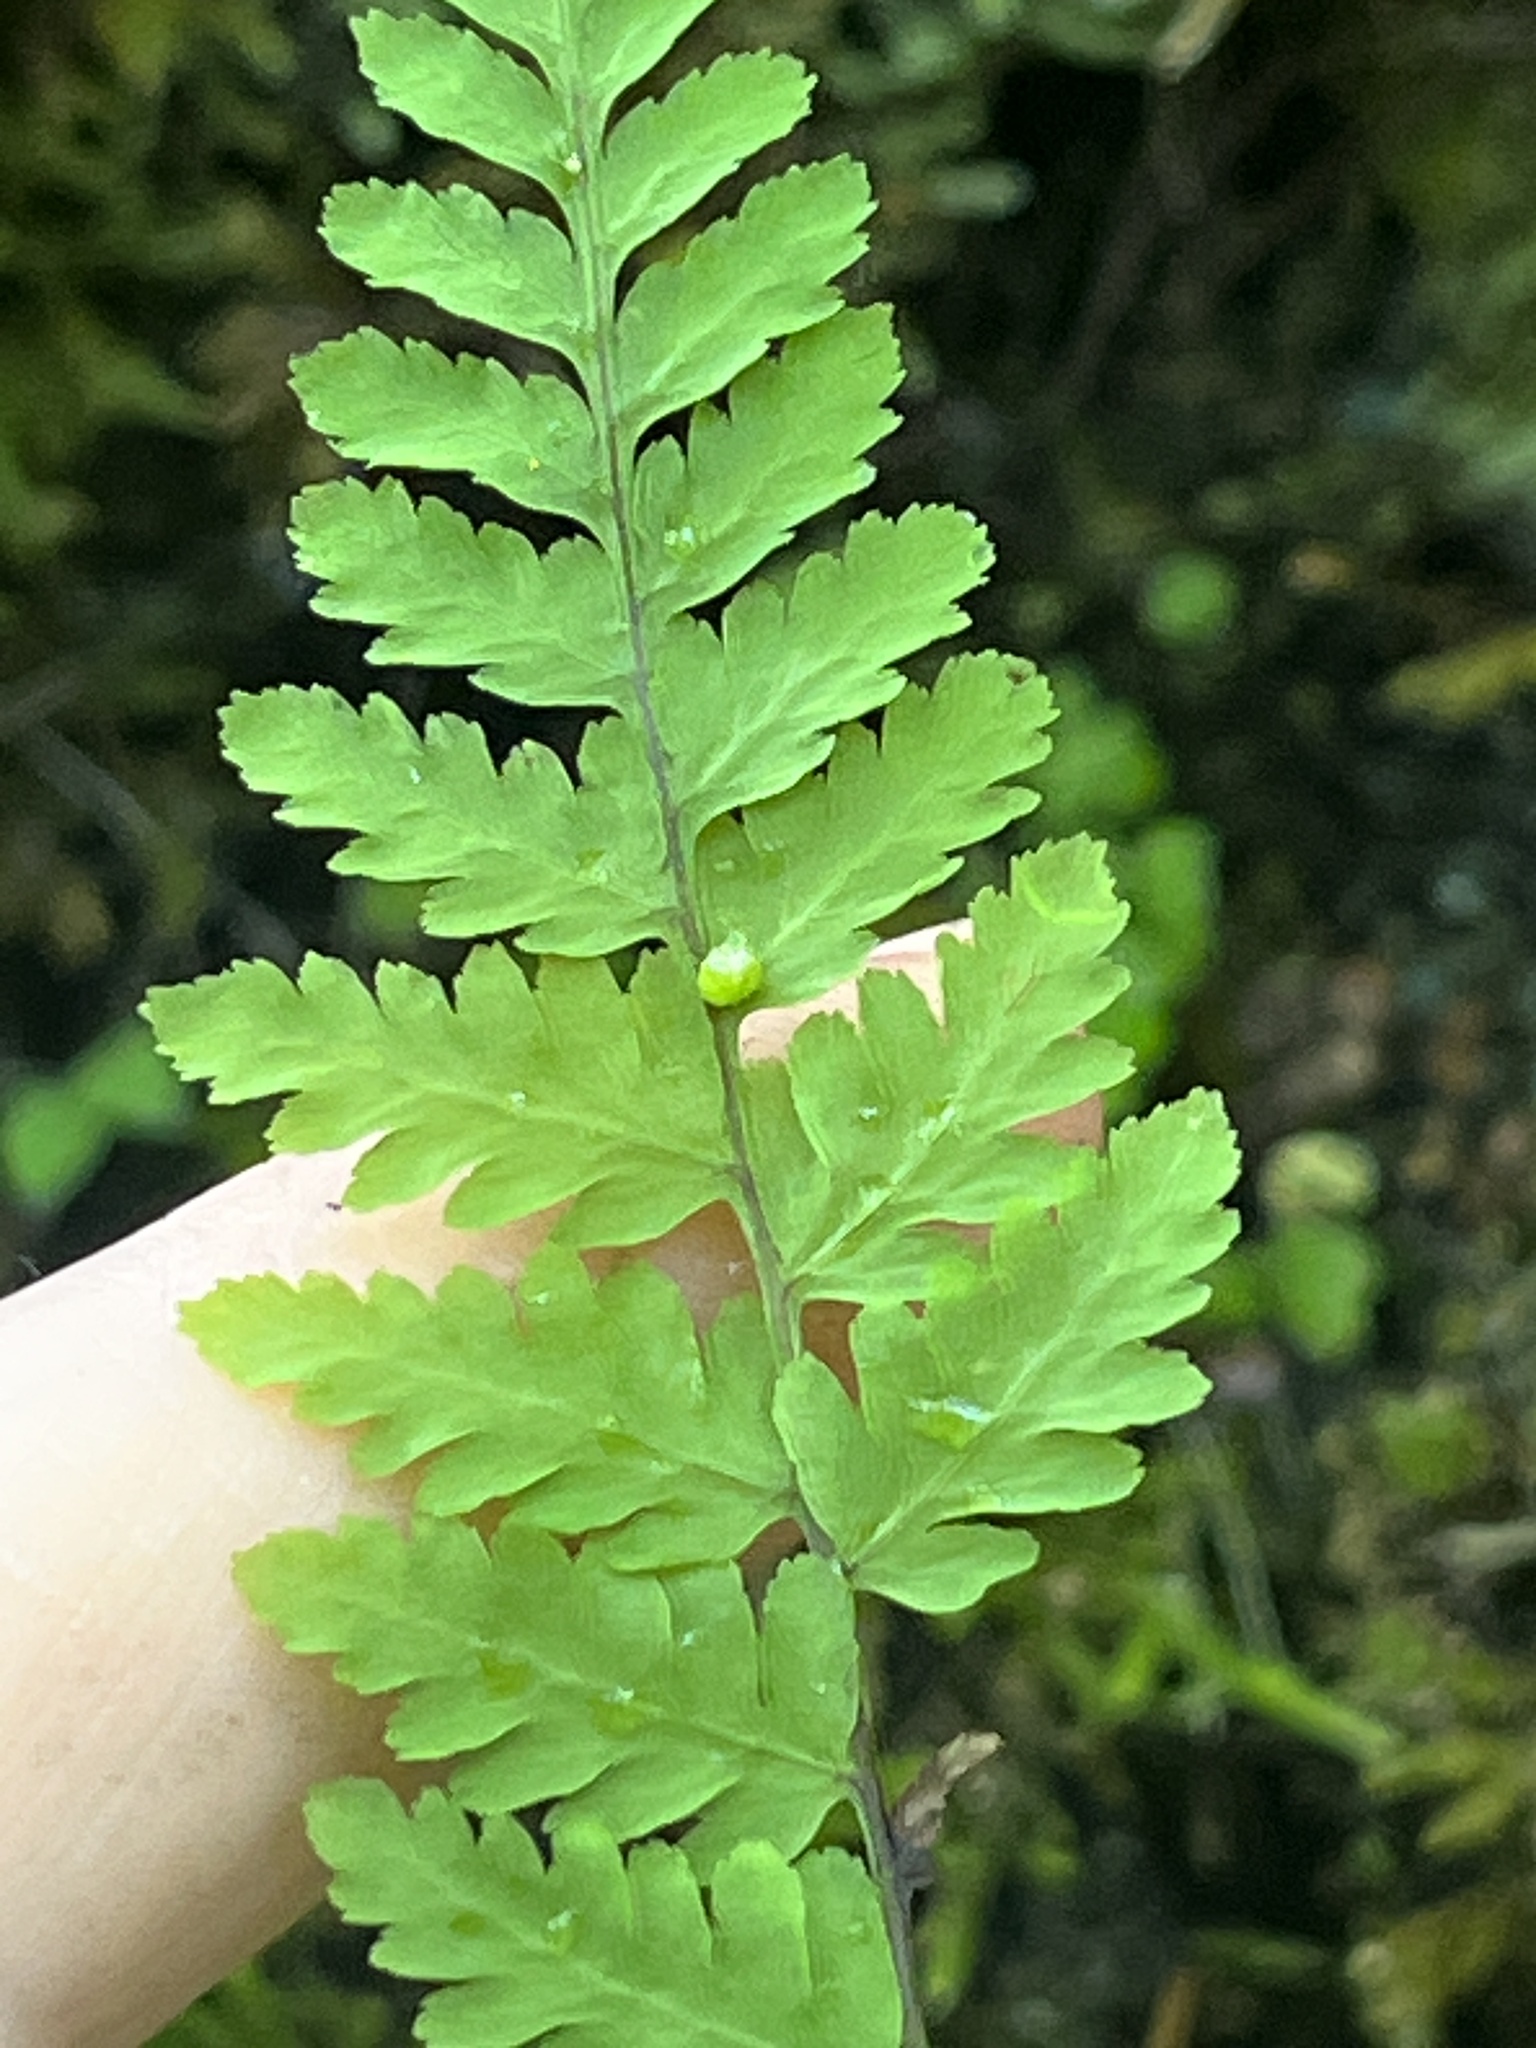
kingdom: Plantae
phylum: Tracheophyta
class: Polypodiopsida
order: Polypodiales
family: Cystopteridaceae
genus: Cystopteris
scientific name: Cystopteris bulbifera
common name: Bulblet bladder fern
